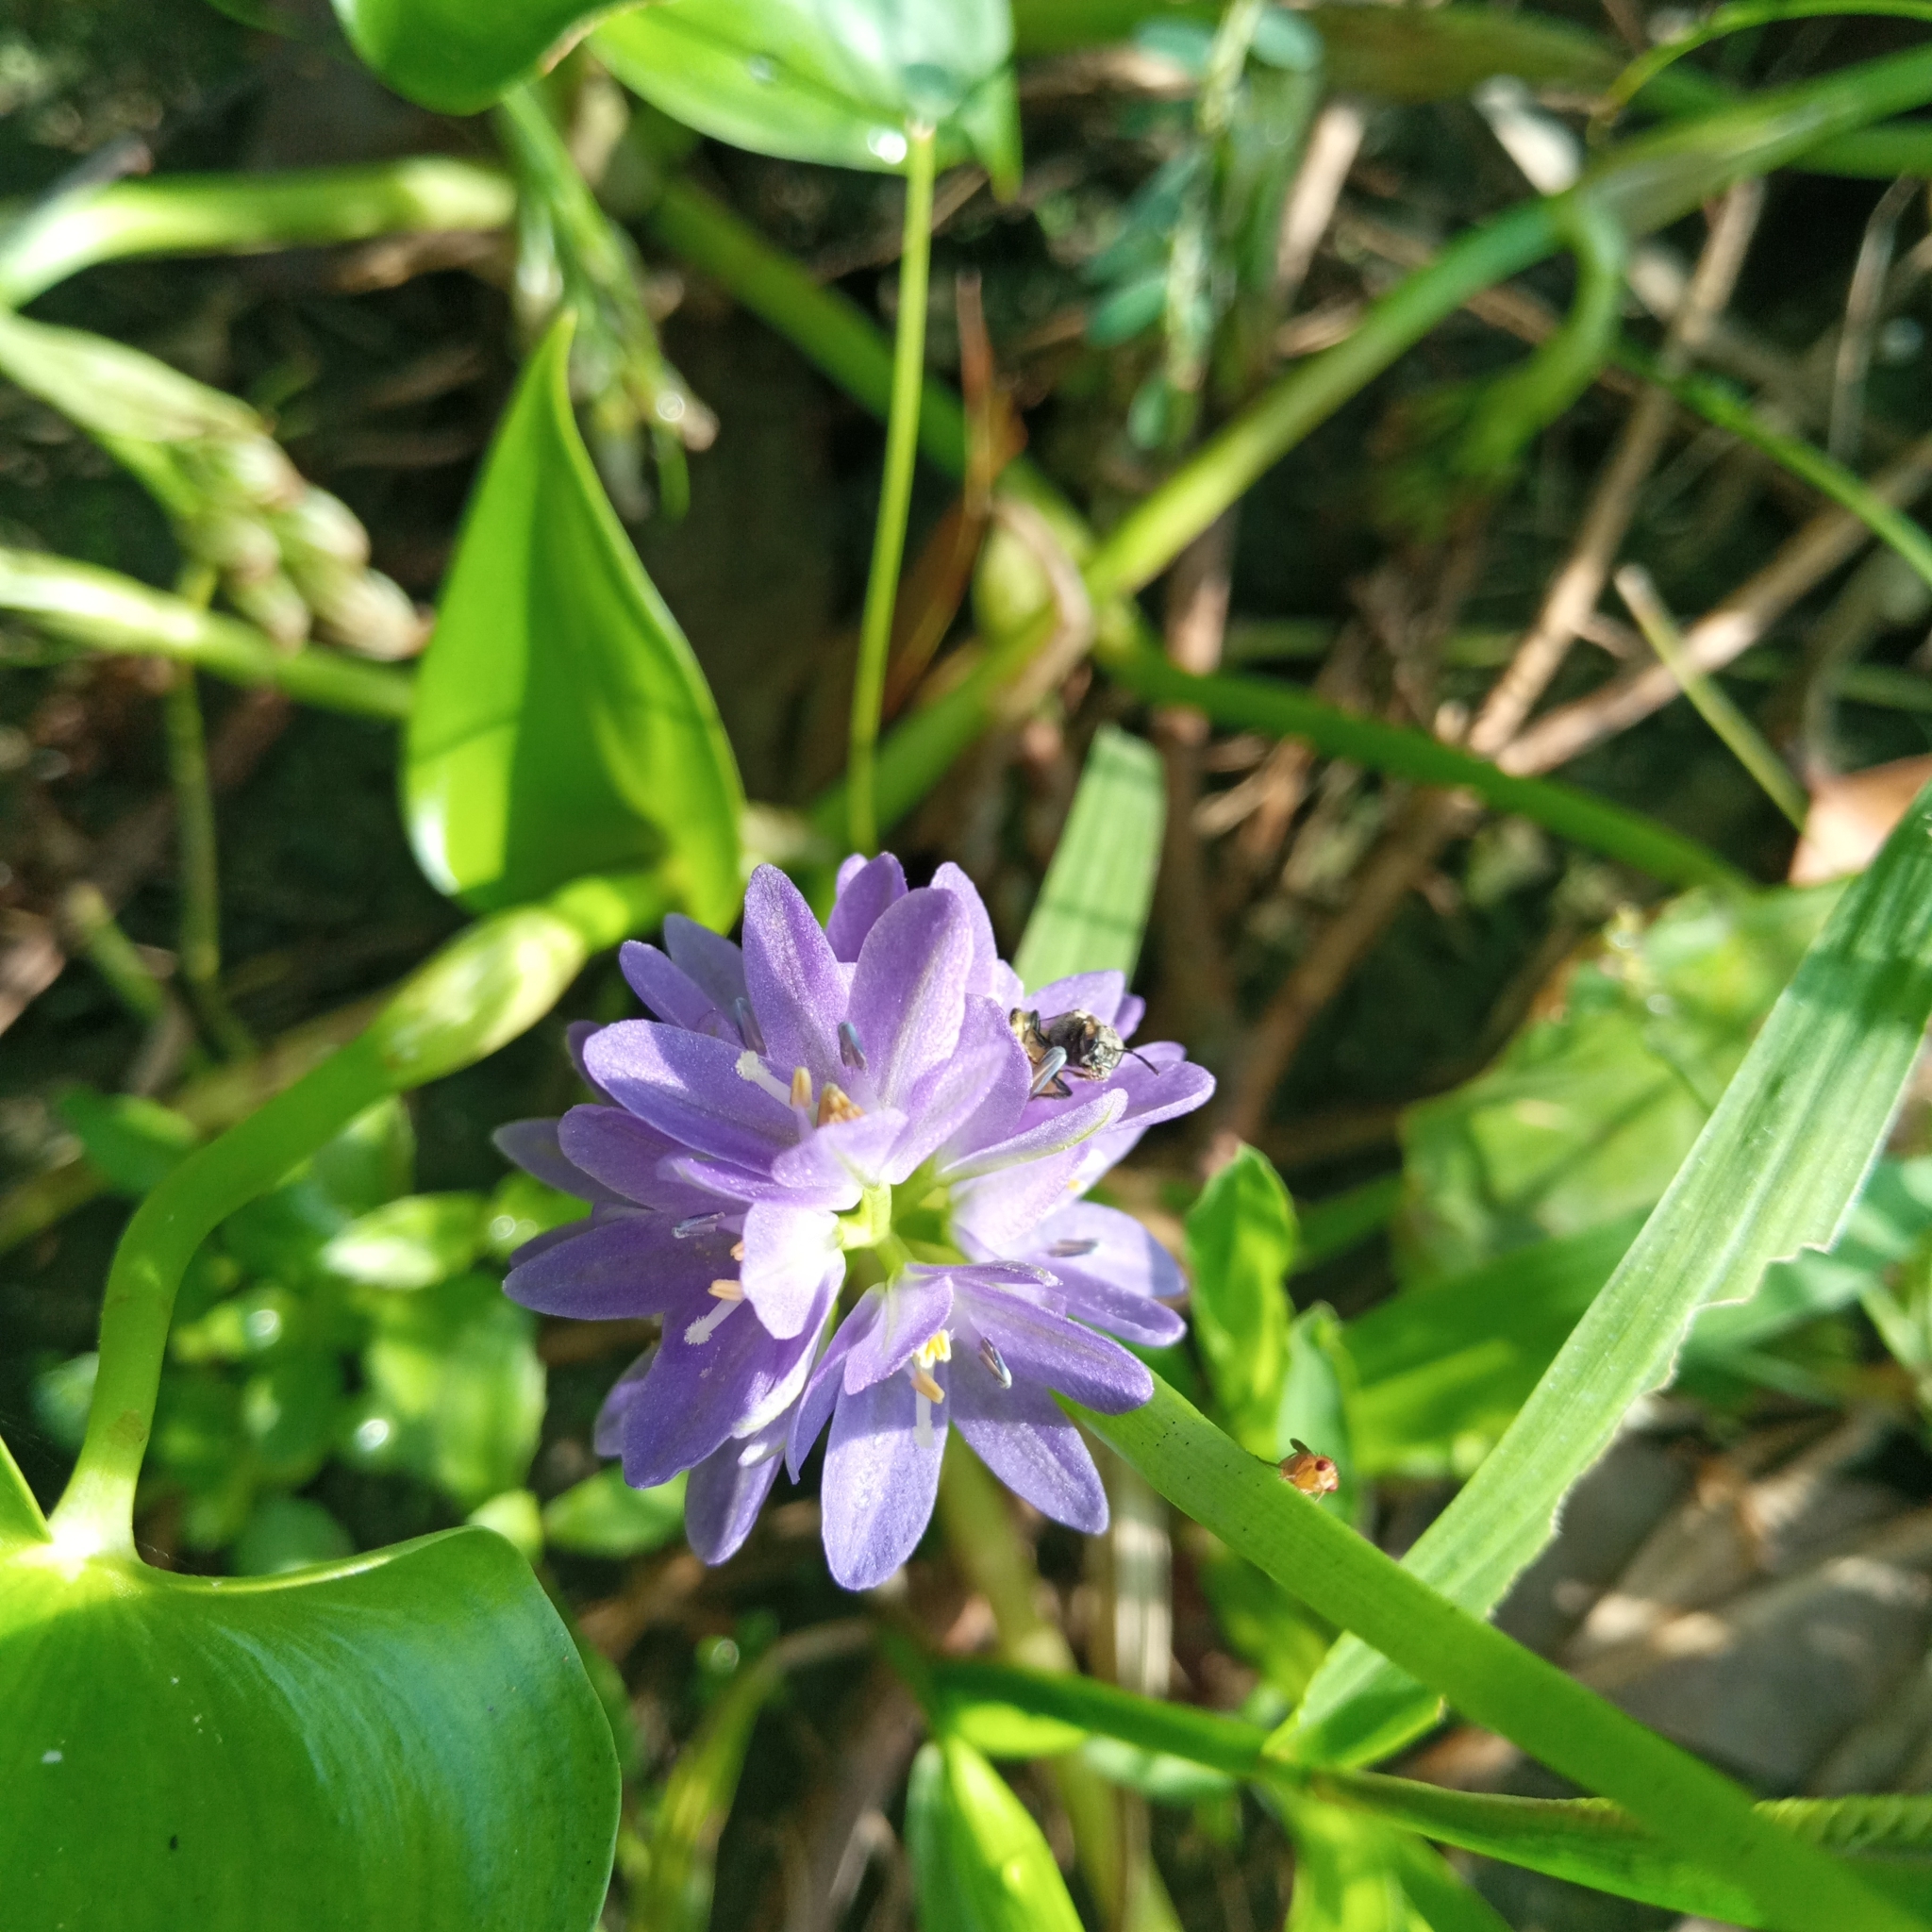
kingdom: Plantae
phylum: Tracheophyta
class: Liliopsida
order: Commelinales
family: Pontederiaceae
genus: Pontederia
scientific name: Pontederia vaginalis
